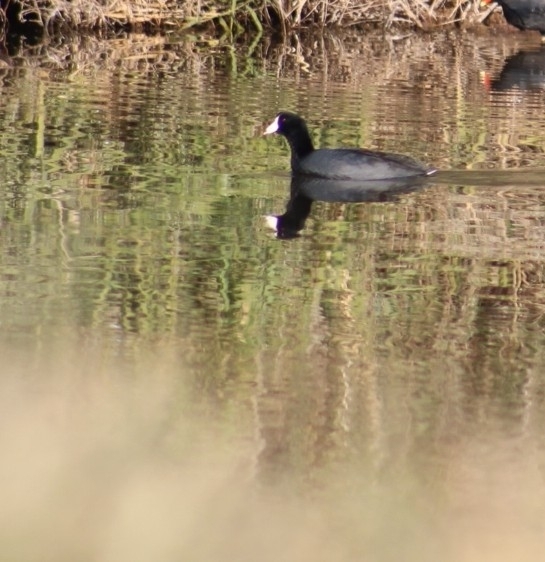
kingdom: Animalia
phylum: Chordata
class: Aves
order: Gruiformes
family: Rallidae
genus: Fulica
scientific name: Fulica americana
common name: American coot
